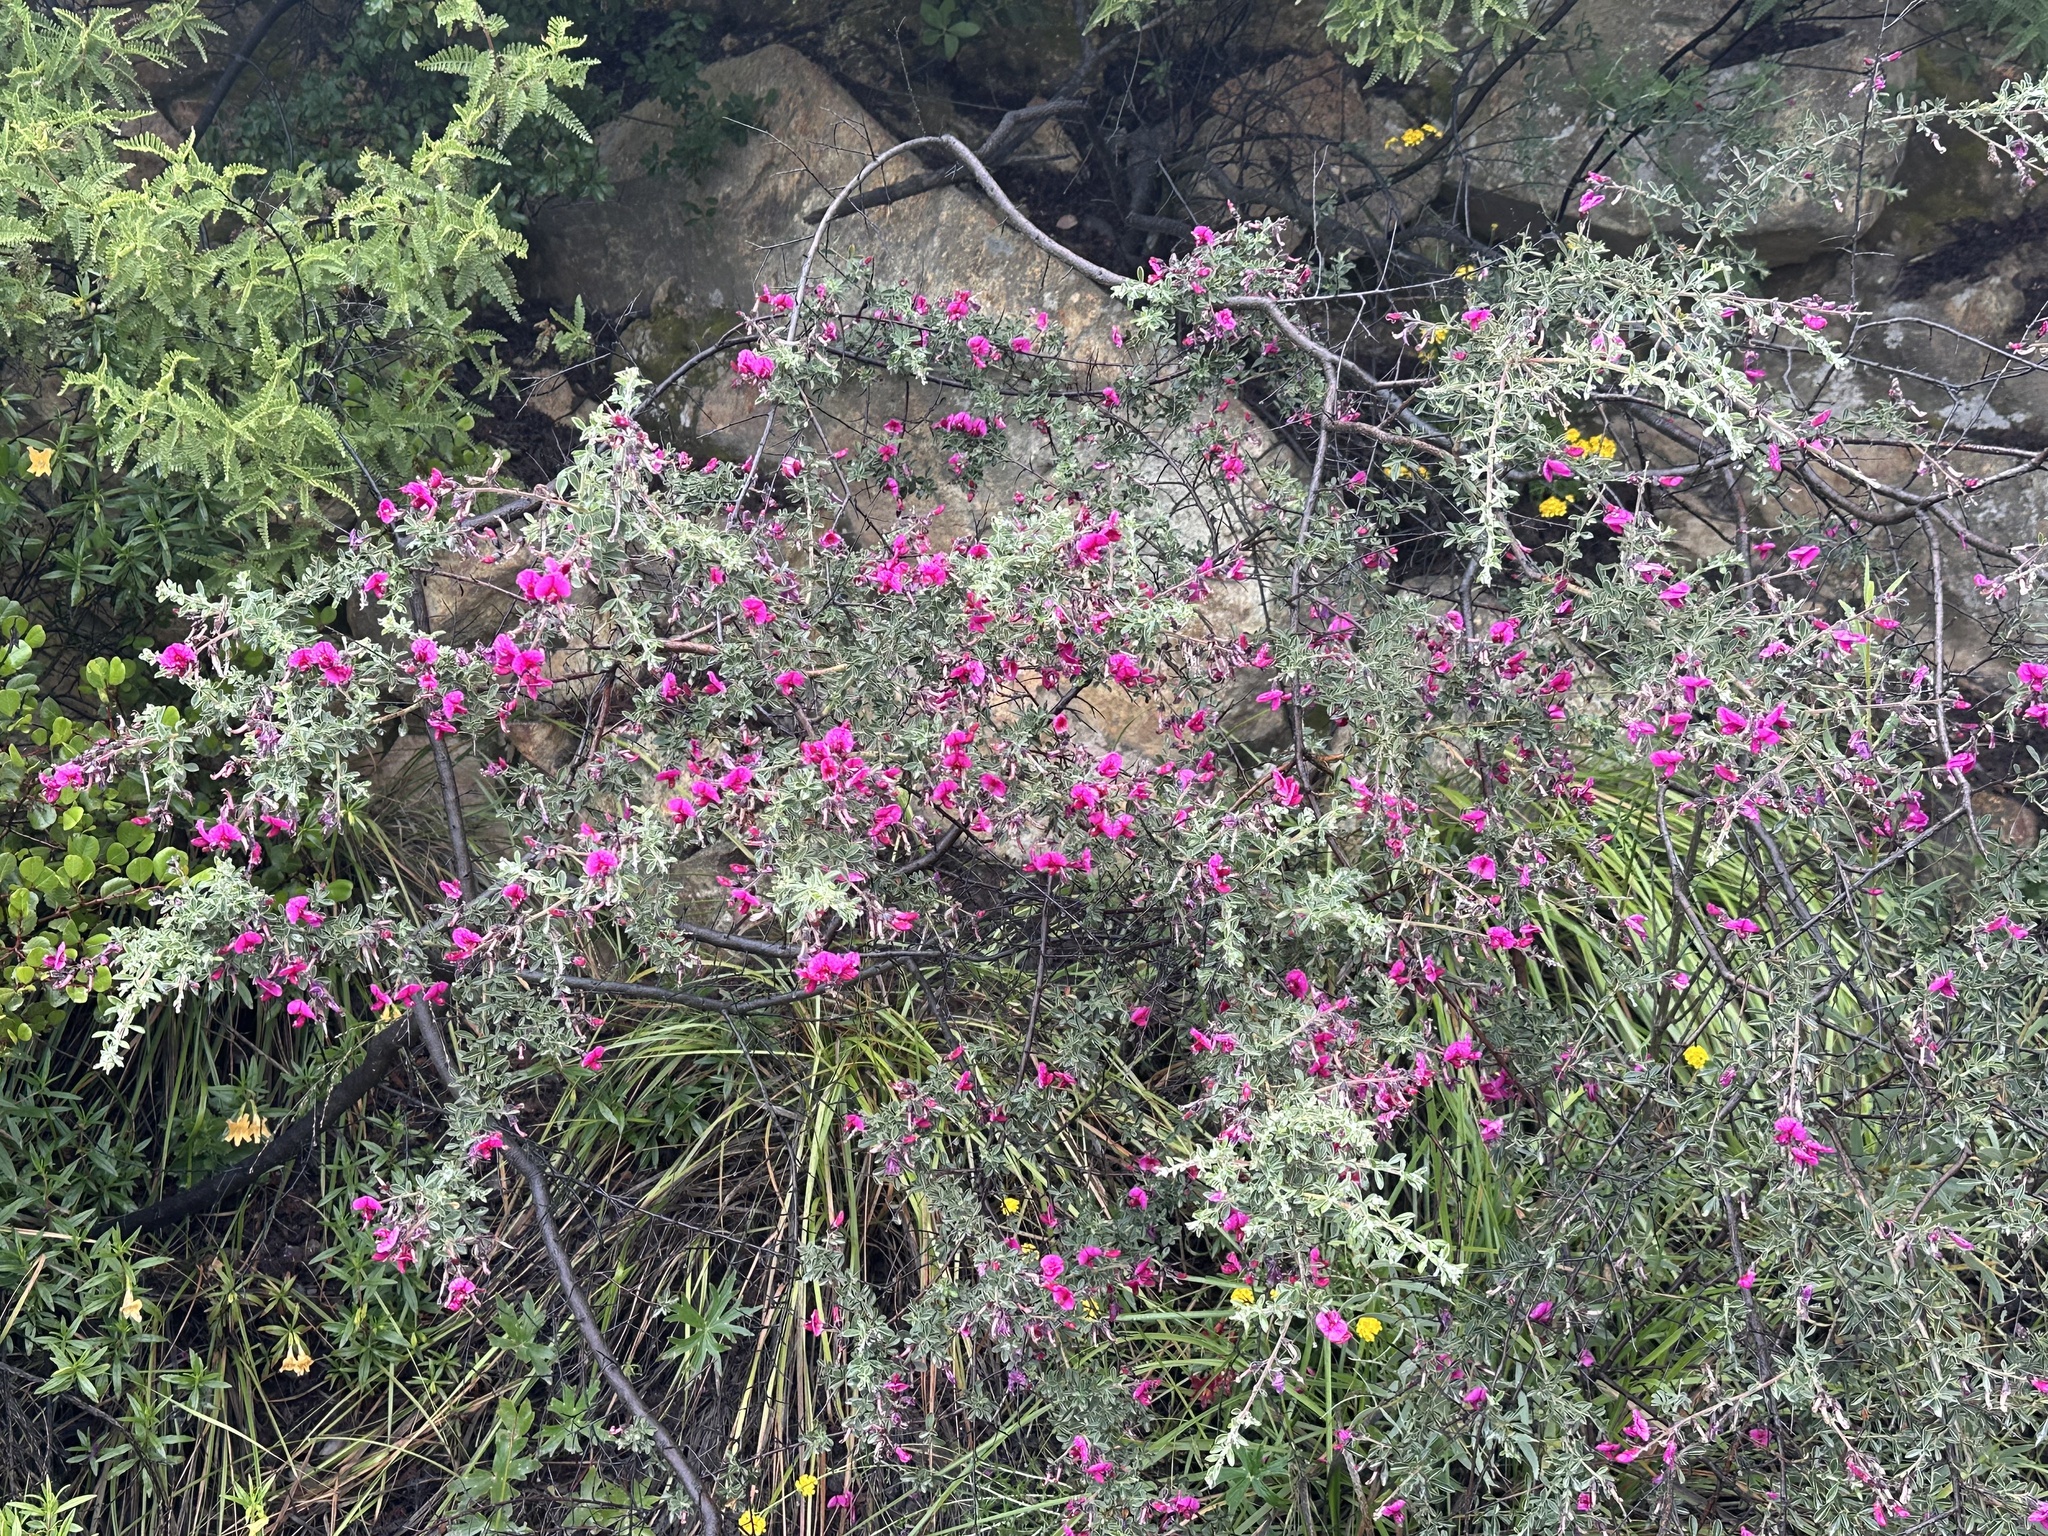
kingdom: Plantae
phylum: Tracheophyta
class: Magnoliopsida
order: Fabales
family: Fabaceae
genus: Pickeringia
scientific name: Pickeringia montana
